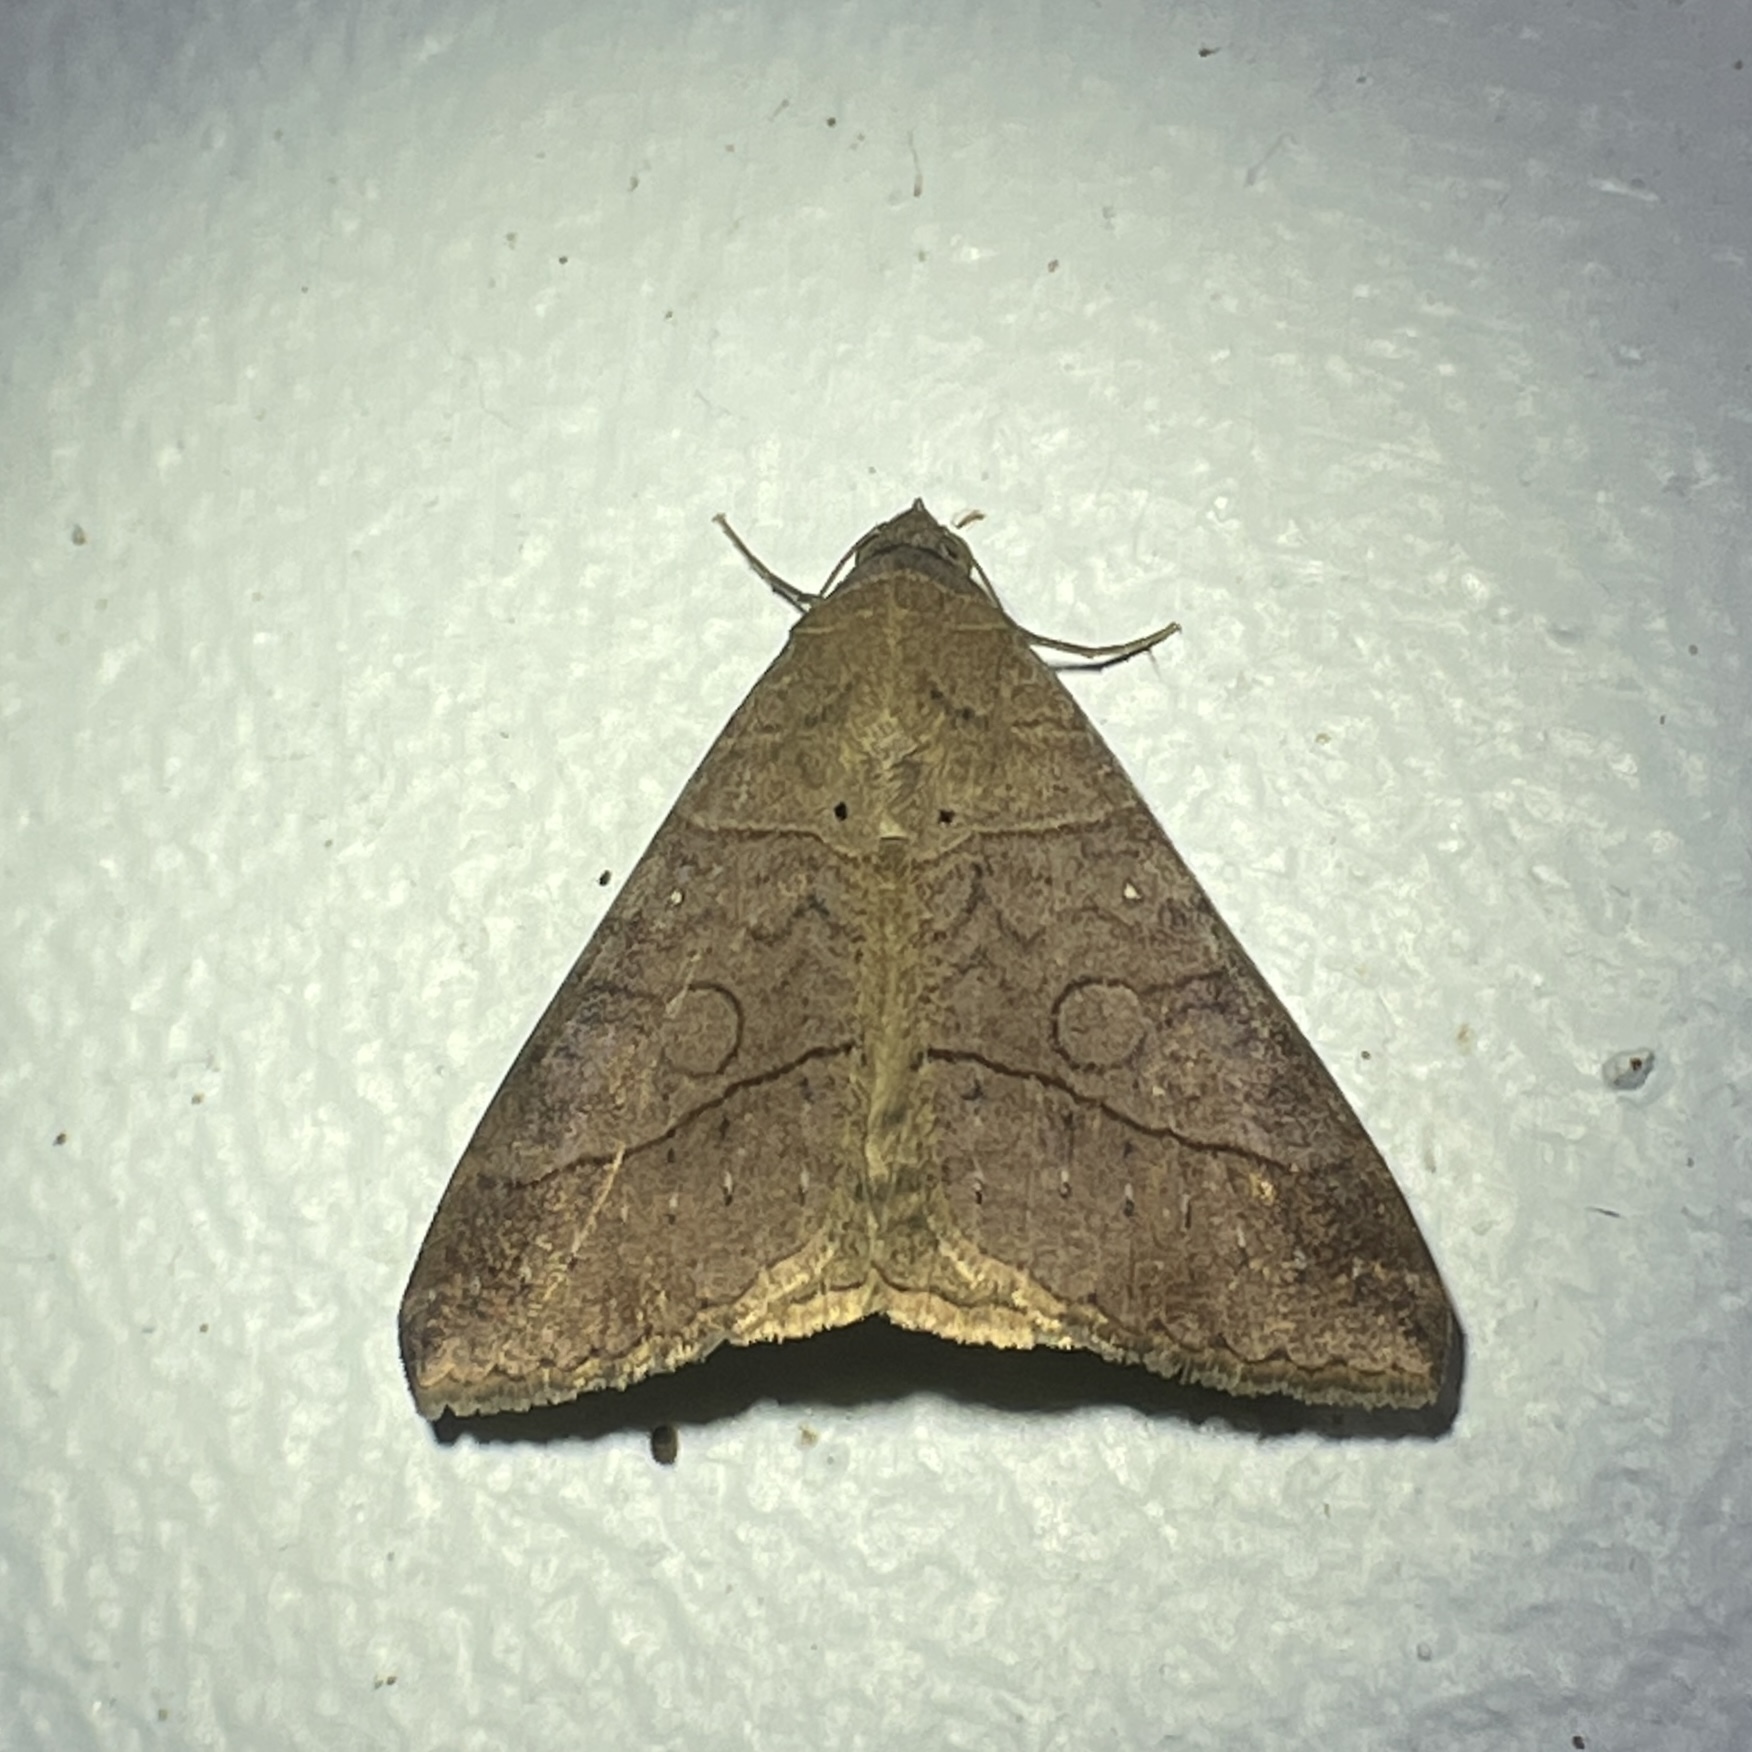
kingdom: Animalia
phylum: Arthropoda
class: Insecta
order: Lepidoptera
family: Erebidae
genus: Mocis
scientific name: Mocis latipes
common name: Striped grass looper
